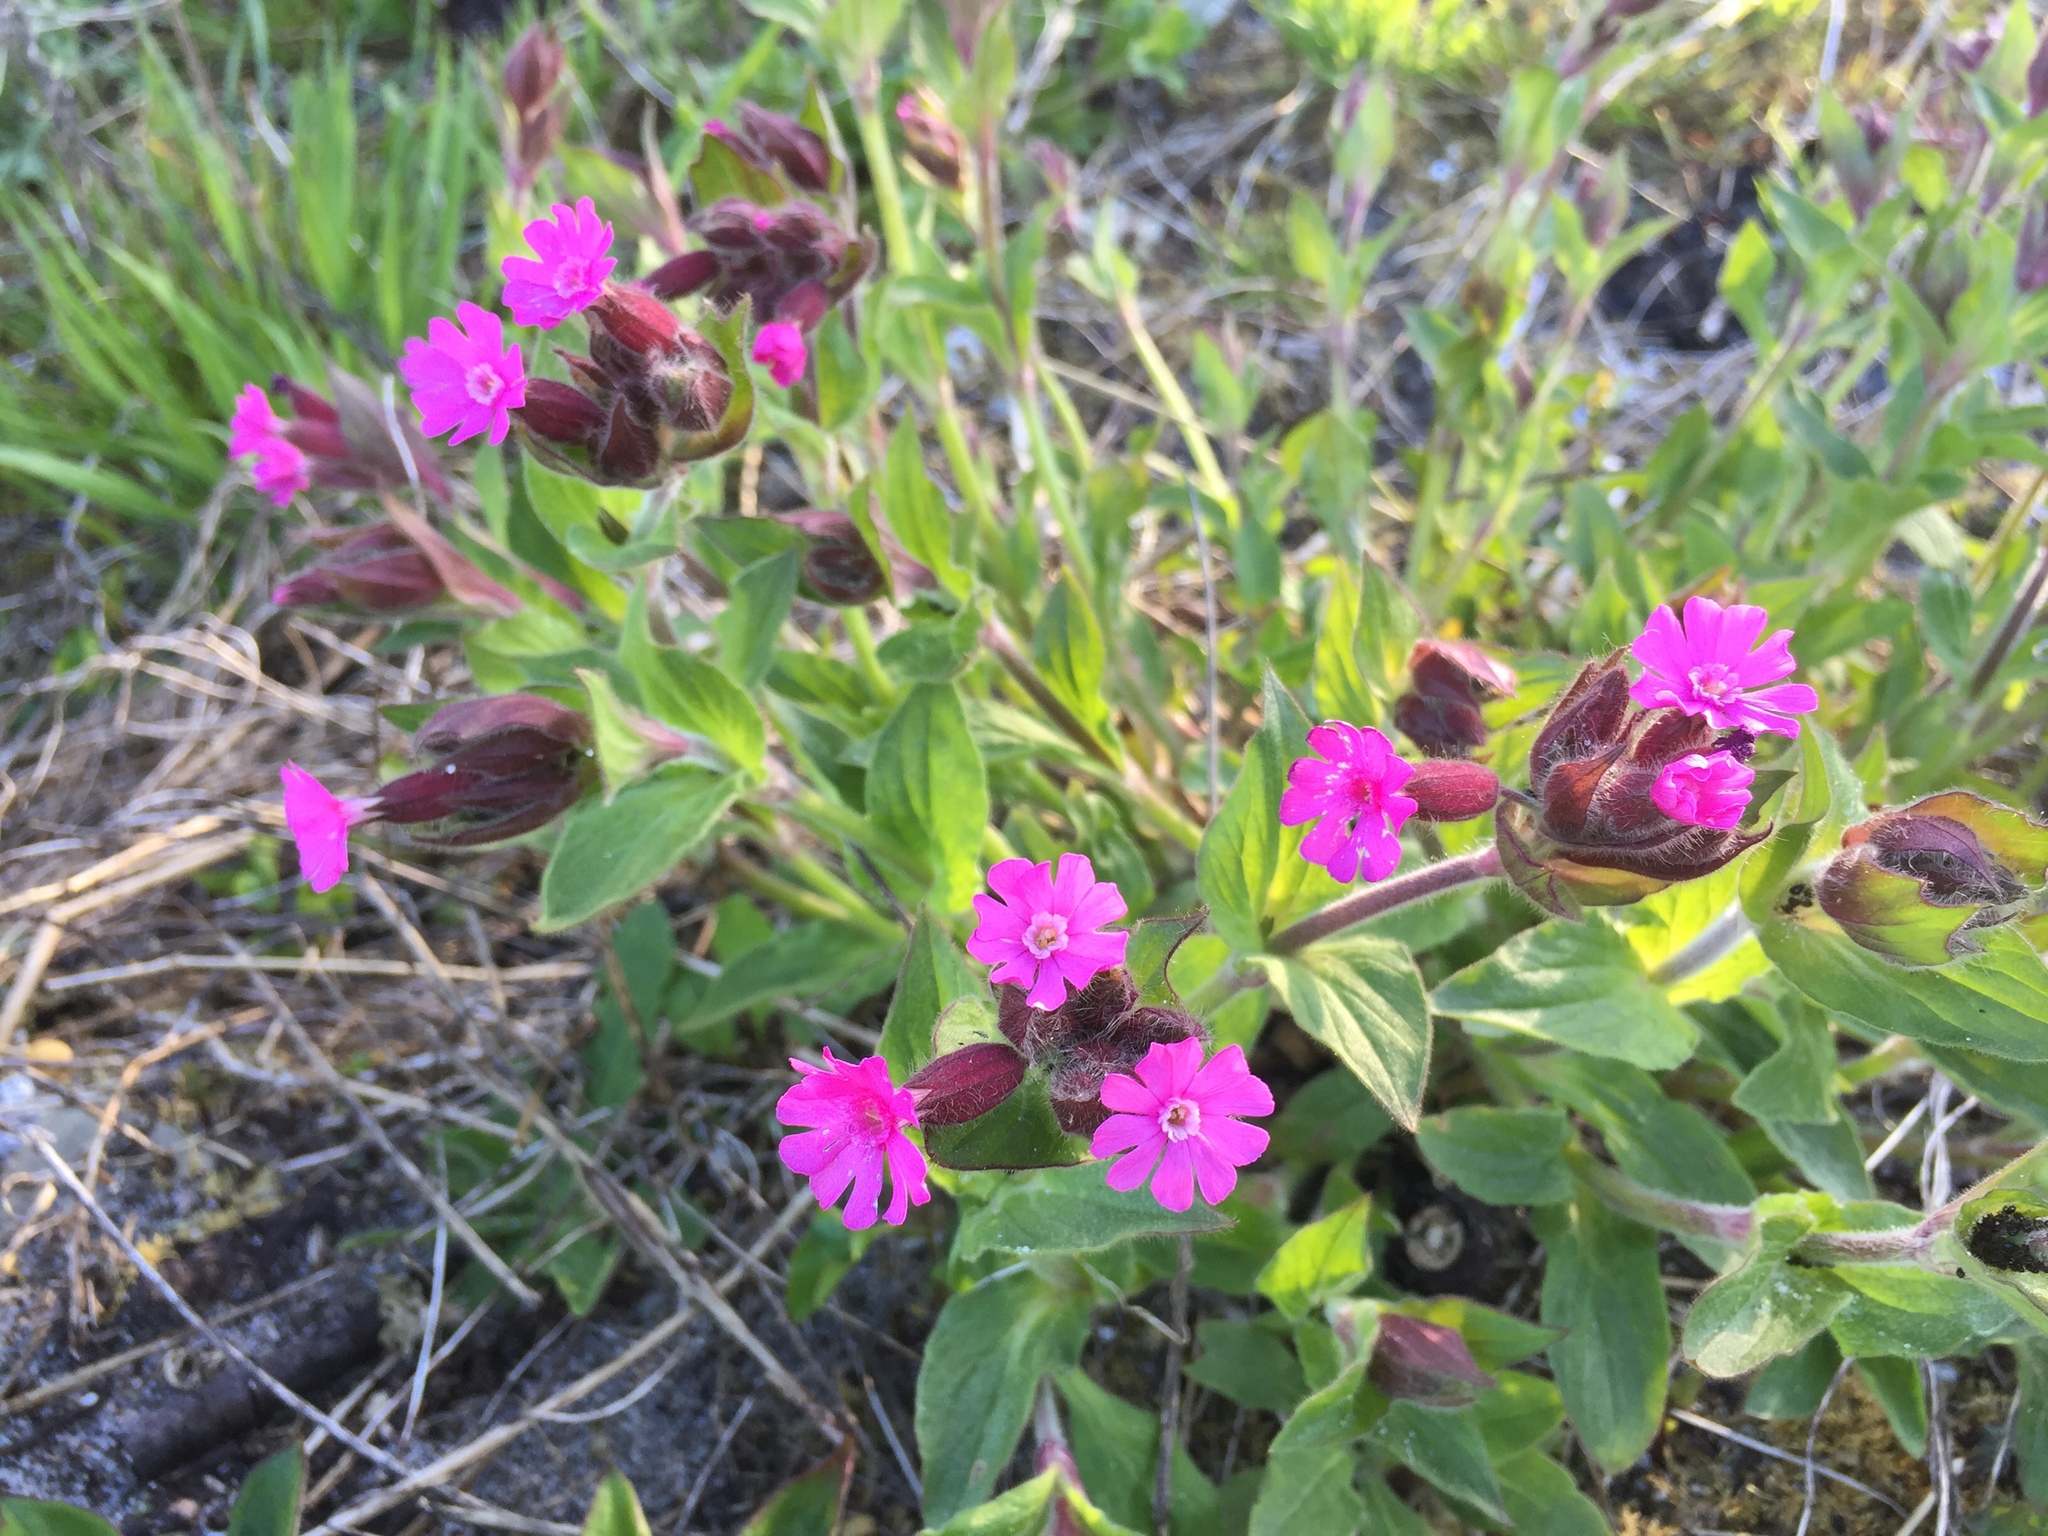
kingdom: Plantae
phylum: Tracheophyta
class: Magnoliopsida
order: Caryophyllales
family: Caryophyllaceae
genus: Silene
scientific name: Silene dioica
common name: Red campion
